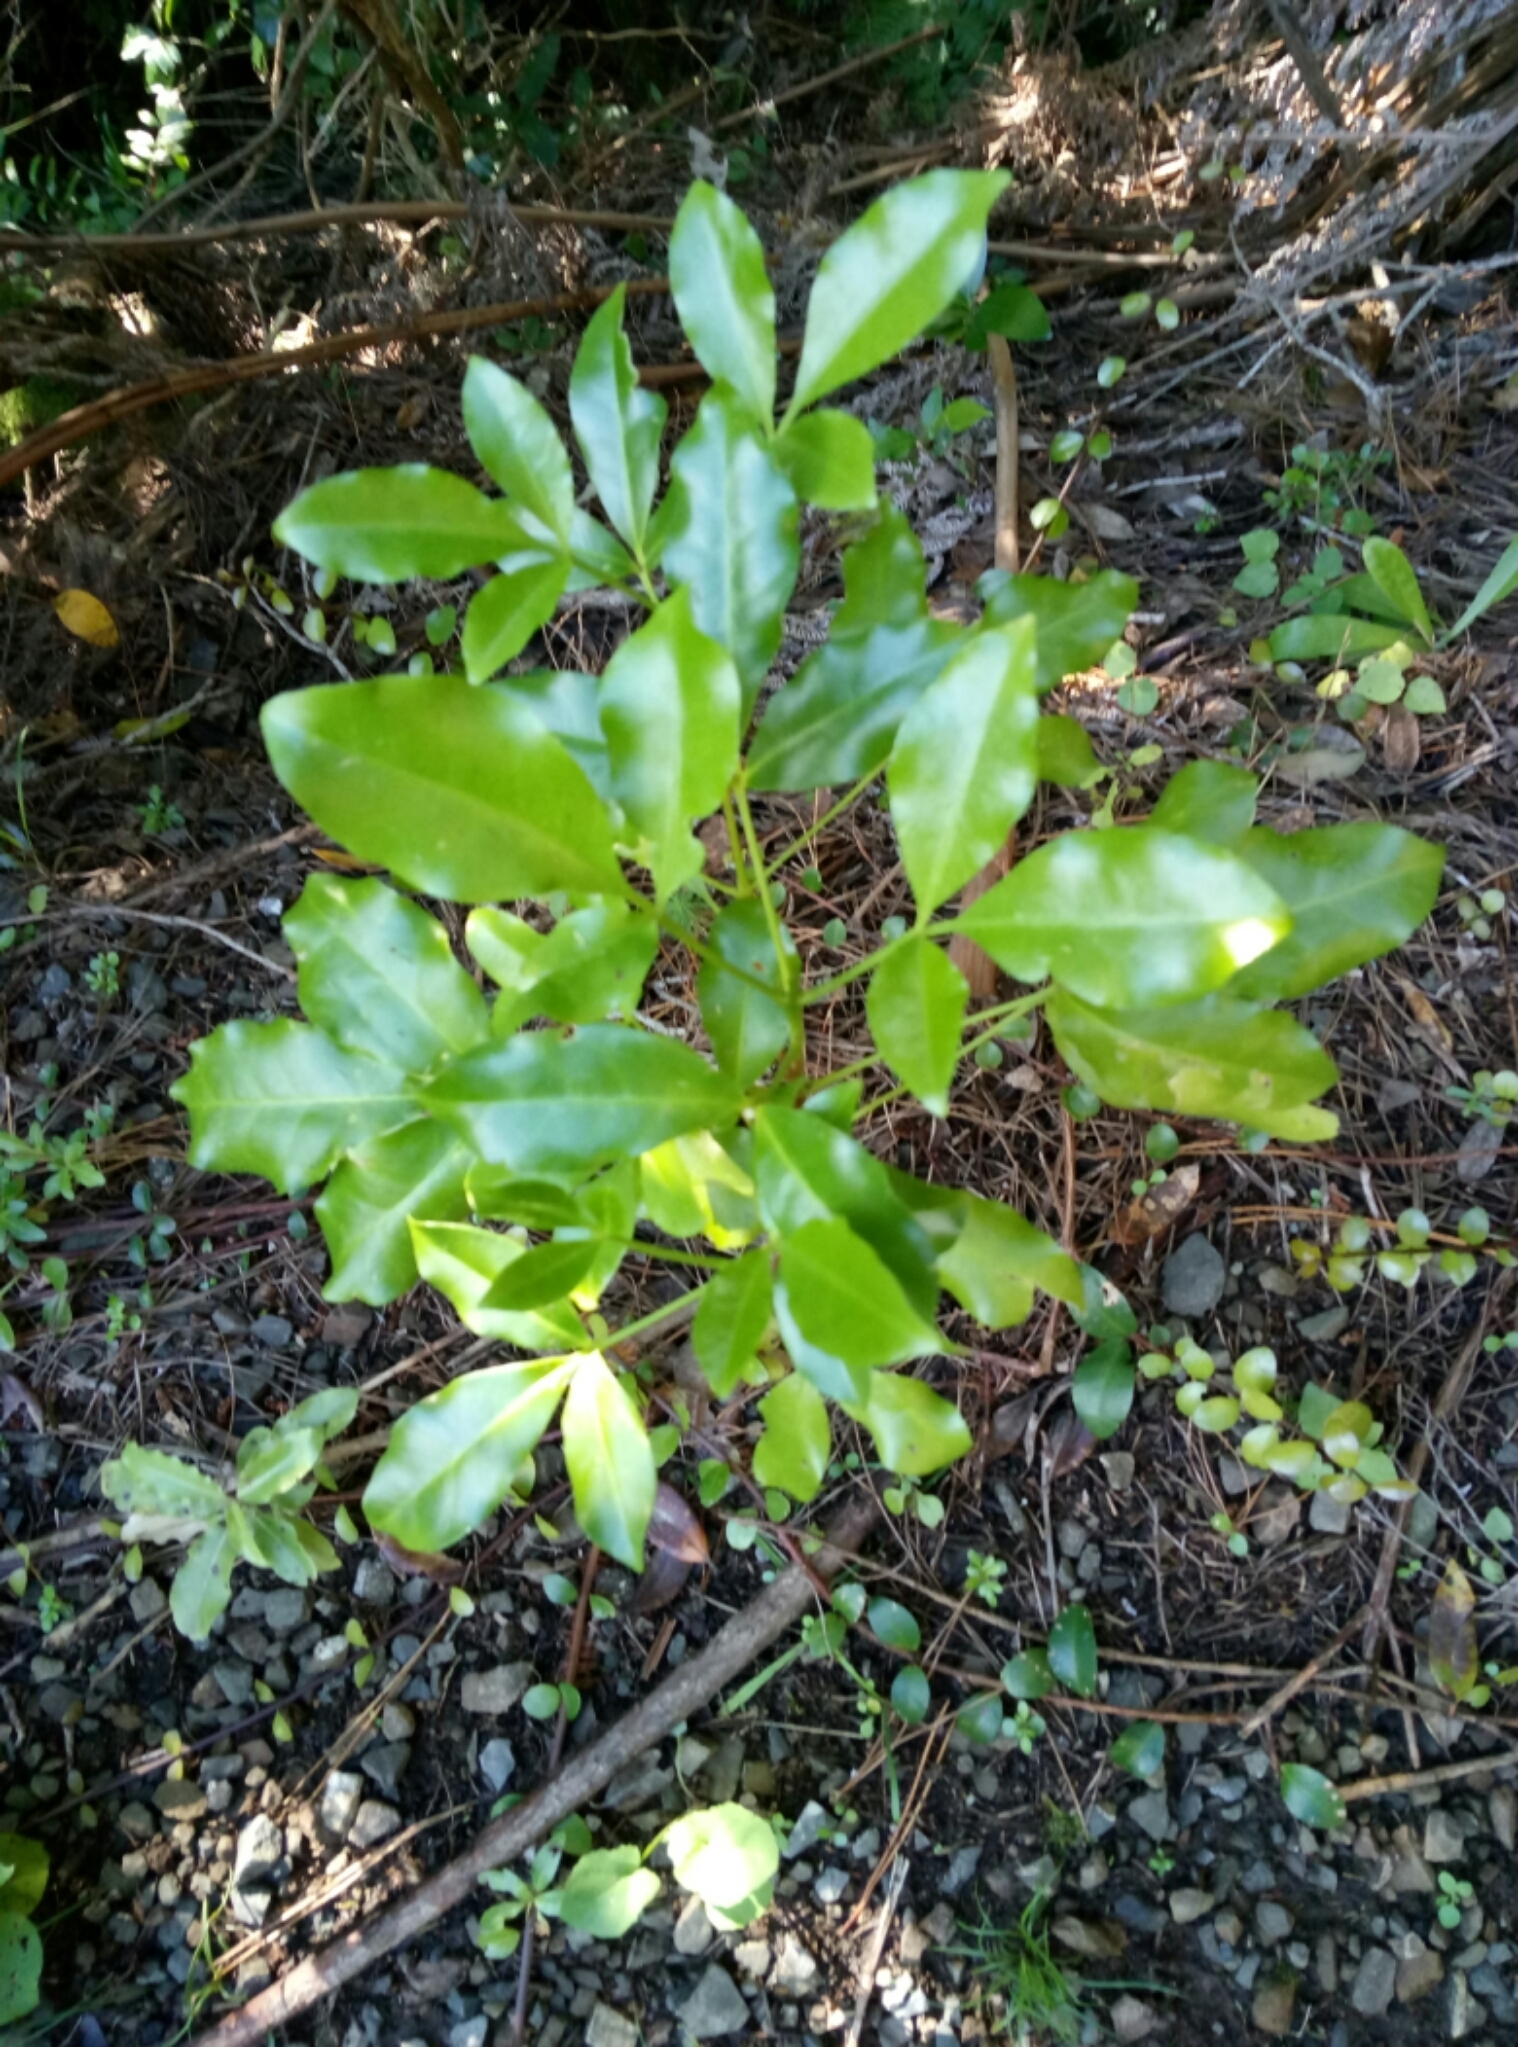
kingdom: Plantae
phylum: Tracheophyta
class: Magnoliopsida
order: Sapindales
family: Rutaceae
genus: Melicope
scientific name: Melicope ternata
